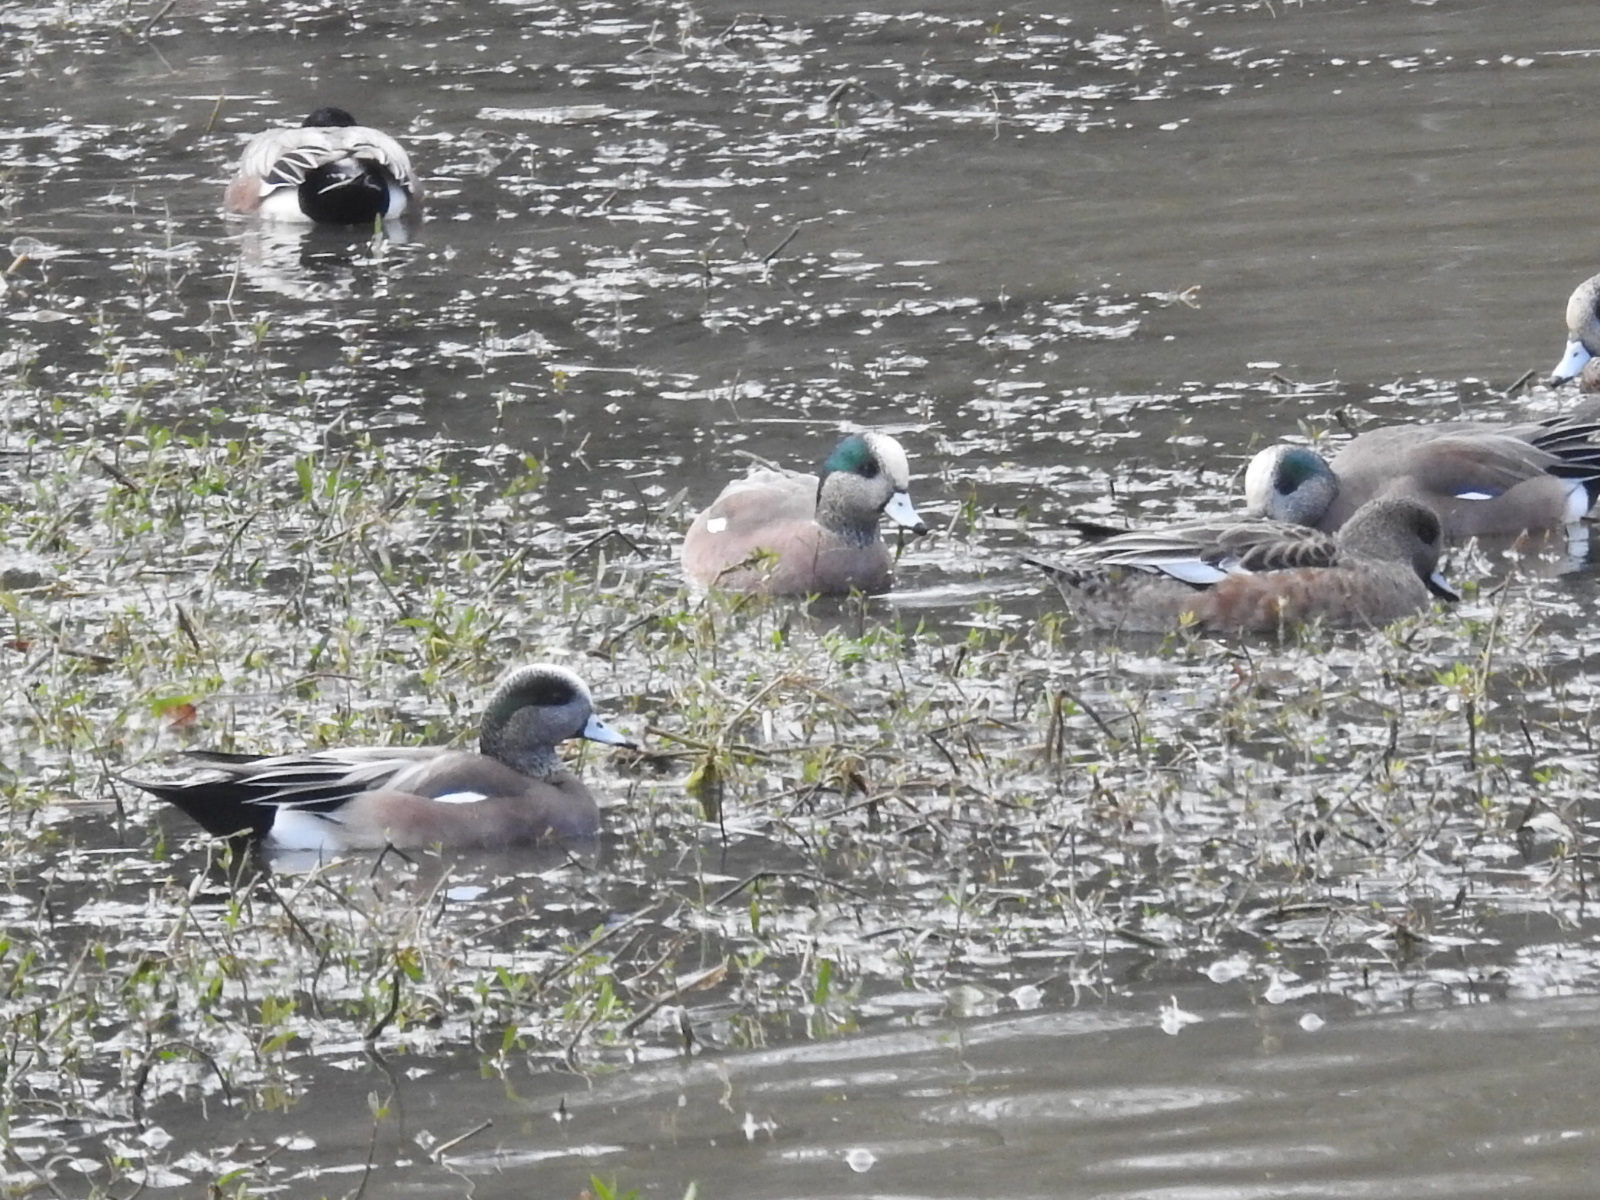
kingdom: Animalia
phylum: Chordata
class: Aves
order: Anseriformes
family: Anatidae
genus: Mareca
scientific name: Mareca americana
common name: American wigeon
